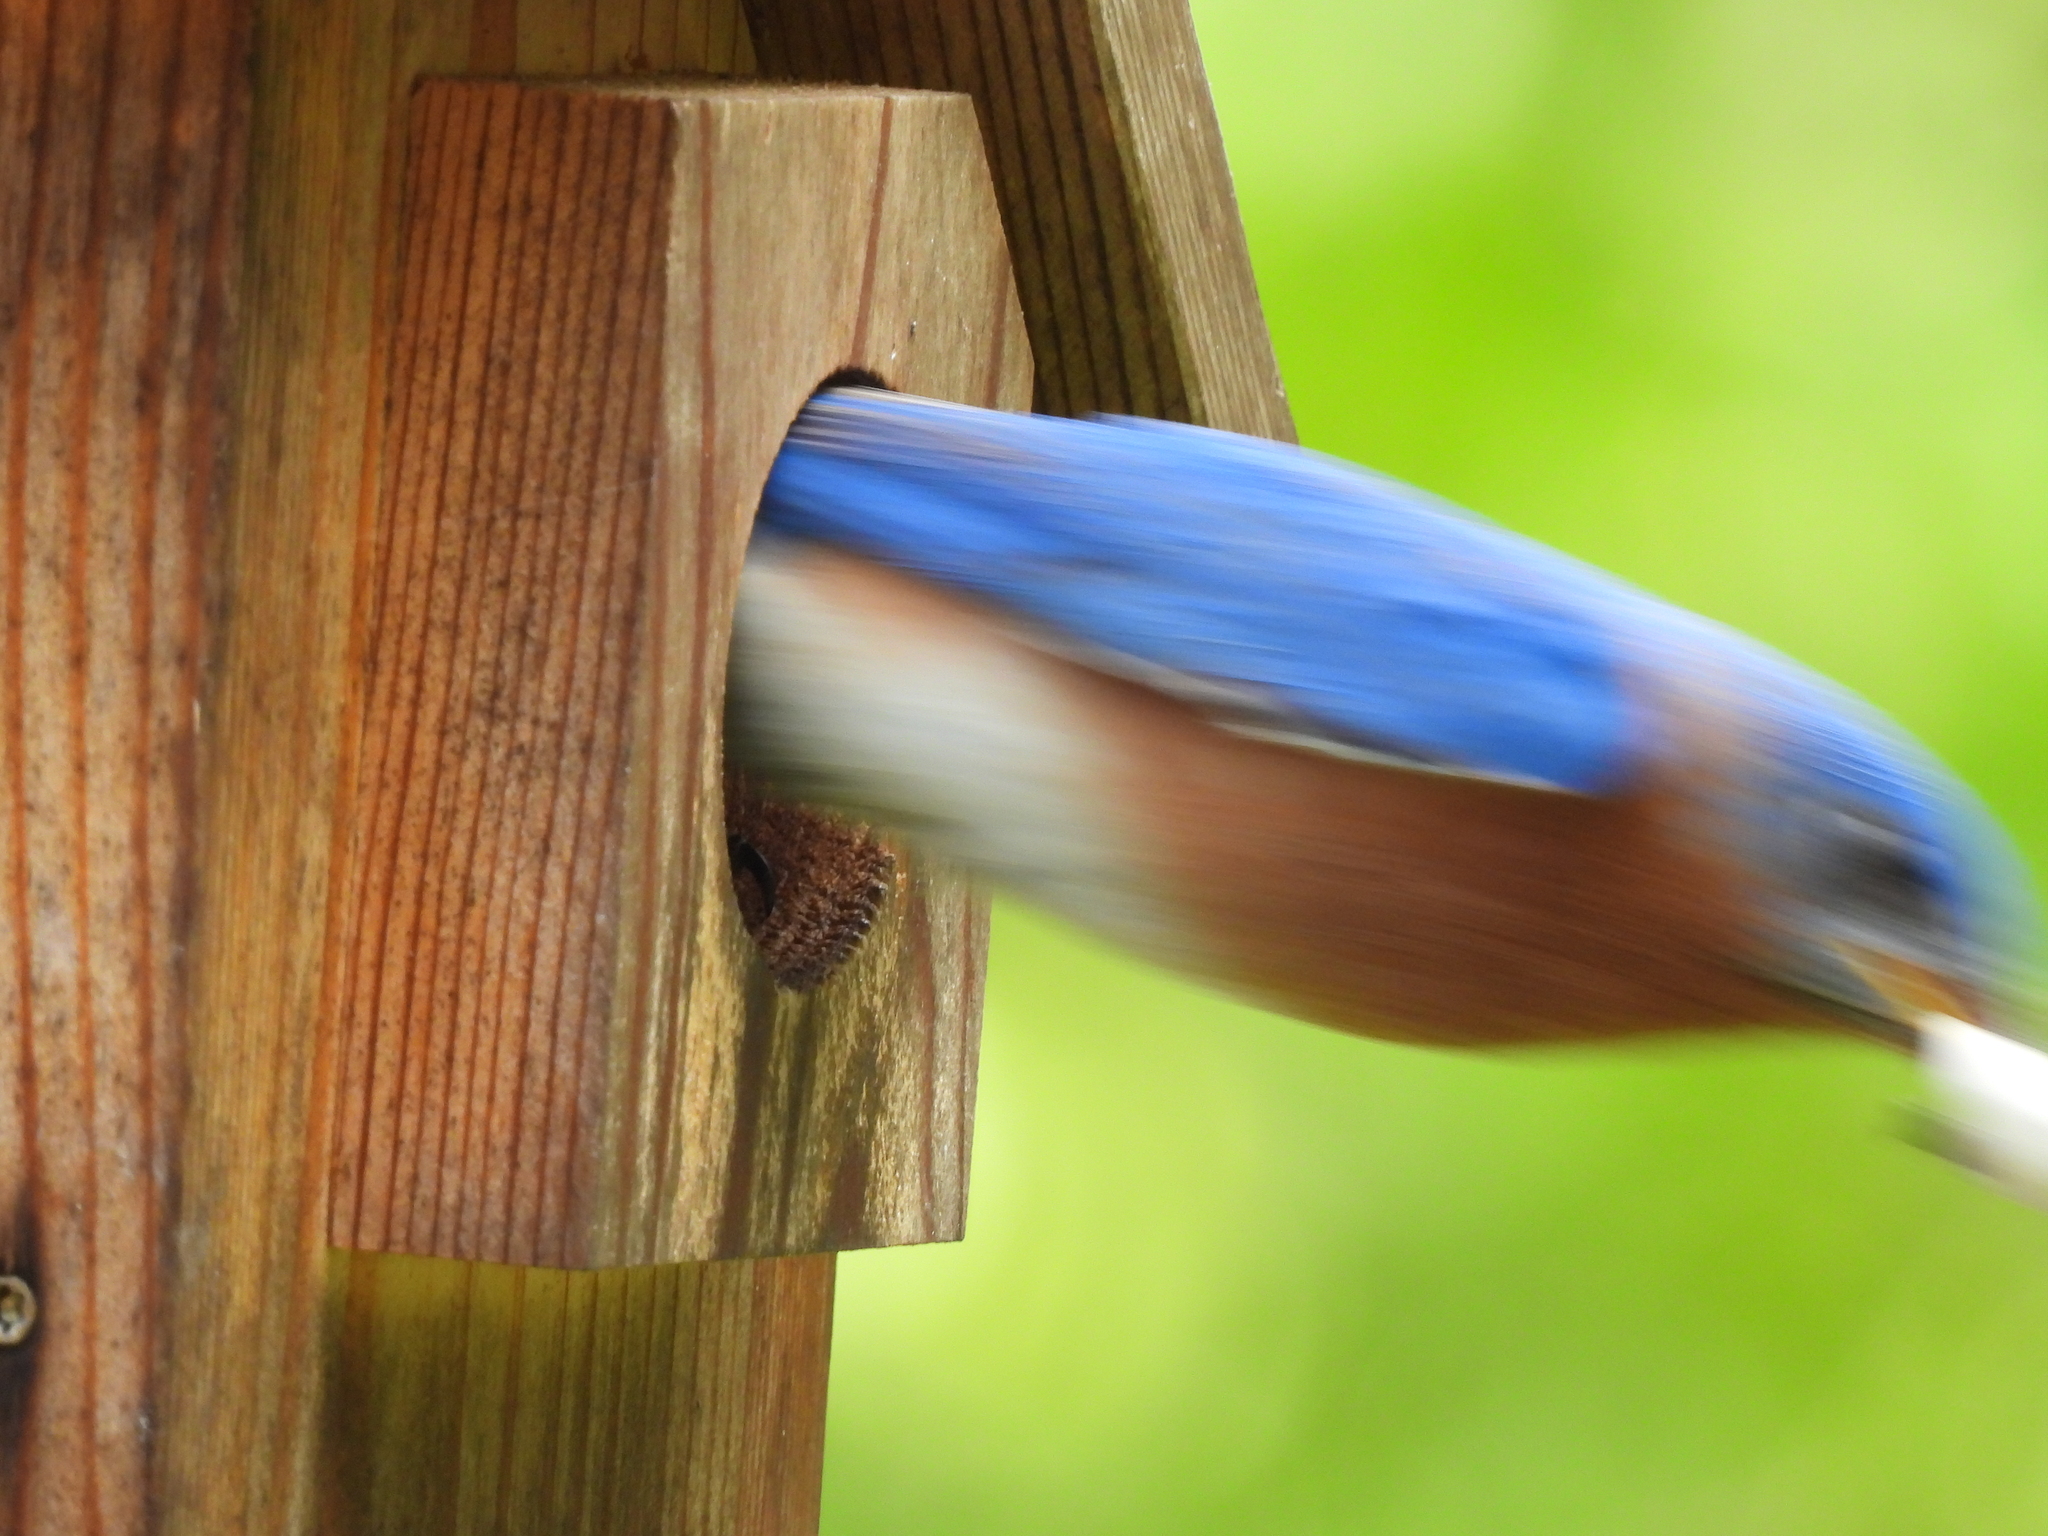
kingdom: Animalia
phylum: Chordata
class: Aves
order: Passeriformes
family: Turdidae
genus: Sialia
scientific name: Sialia sialis
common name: Eastern bluebird
